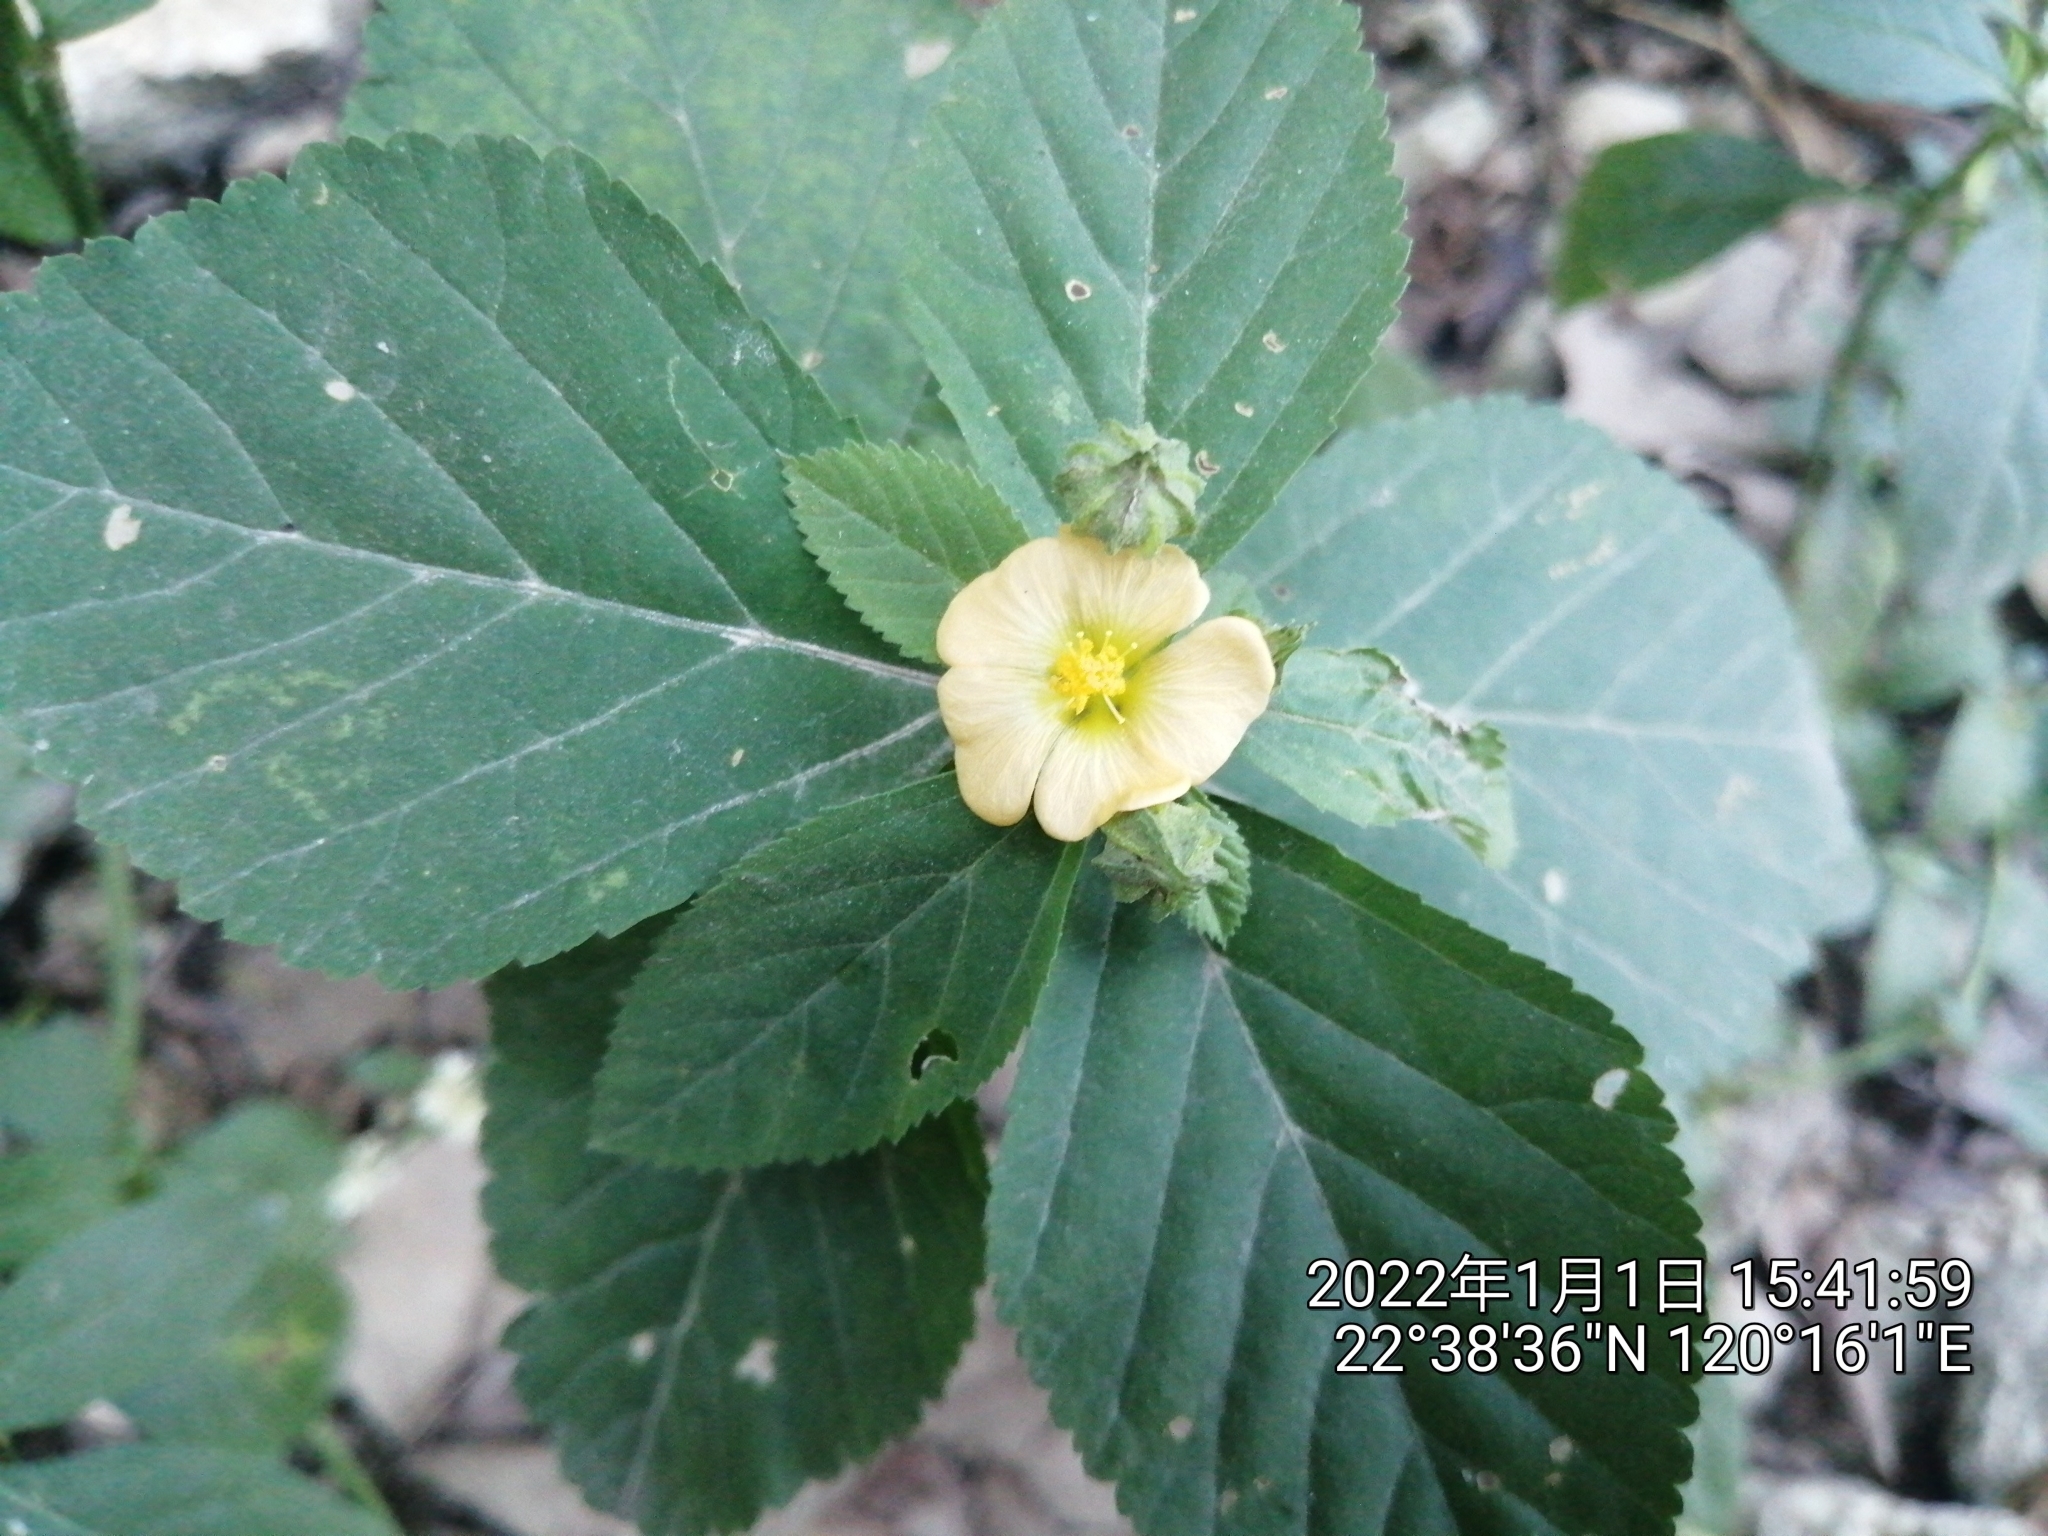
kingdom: Plantae
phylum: Tracheophyta
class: Magnoliopsida
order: Malvales
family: Malvaceae
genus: Sida
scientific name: Sida rhombifolia
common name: Queensland-hemp
